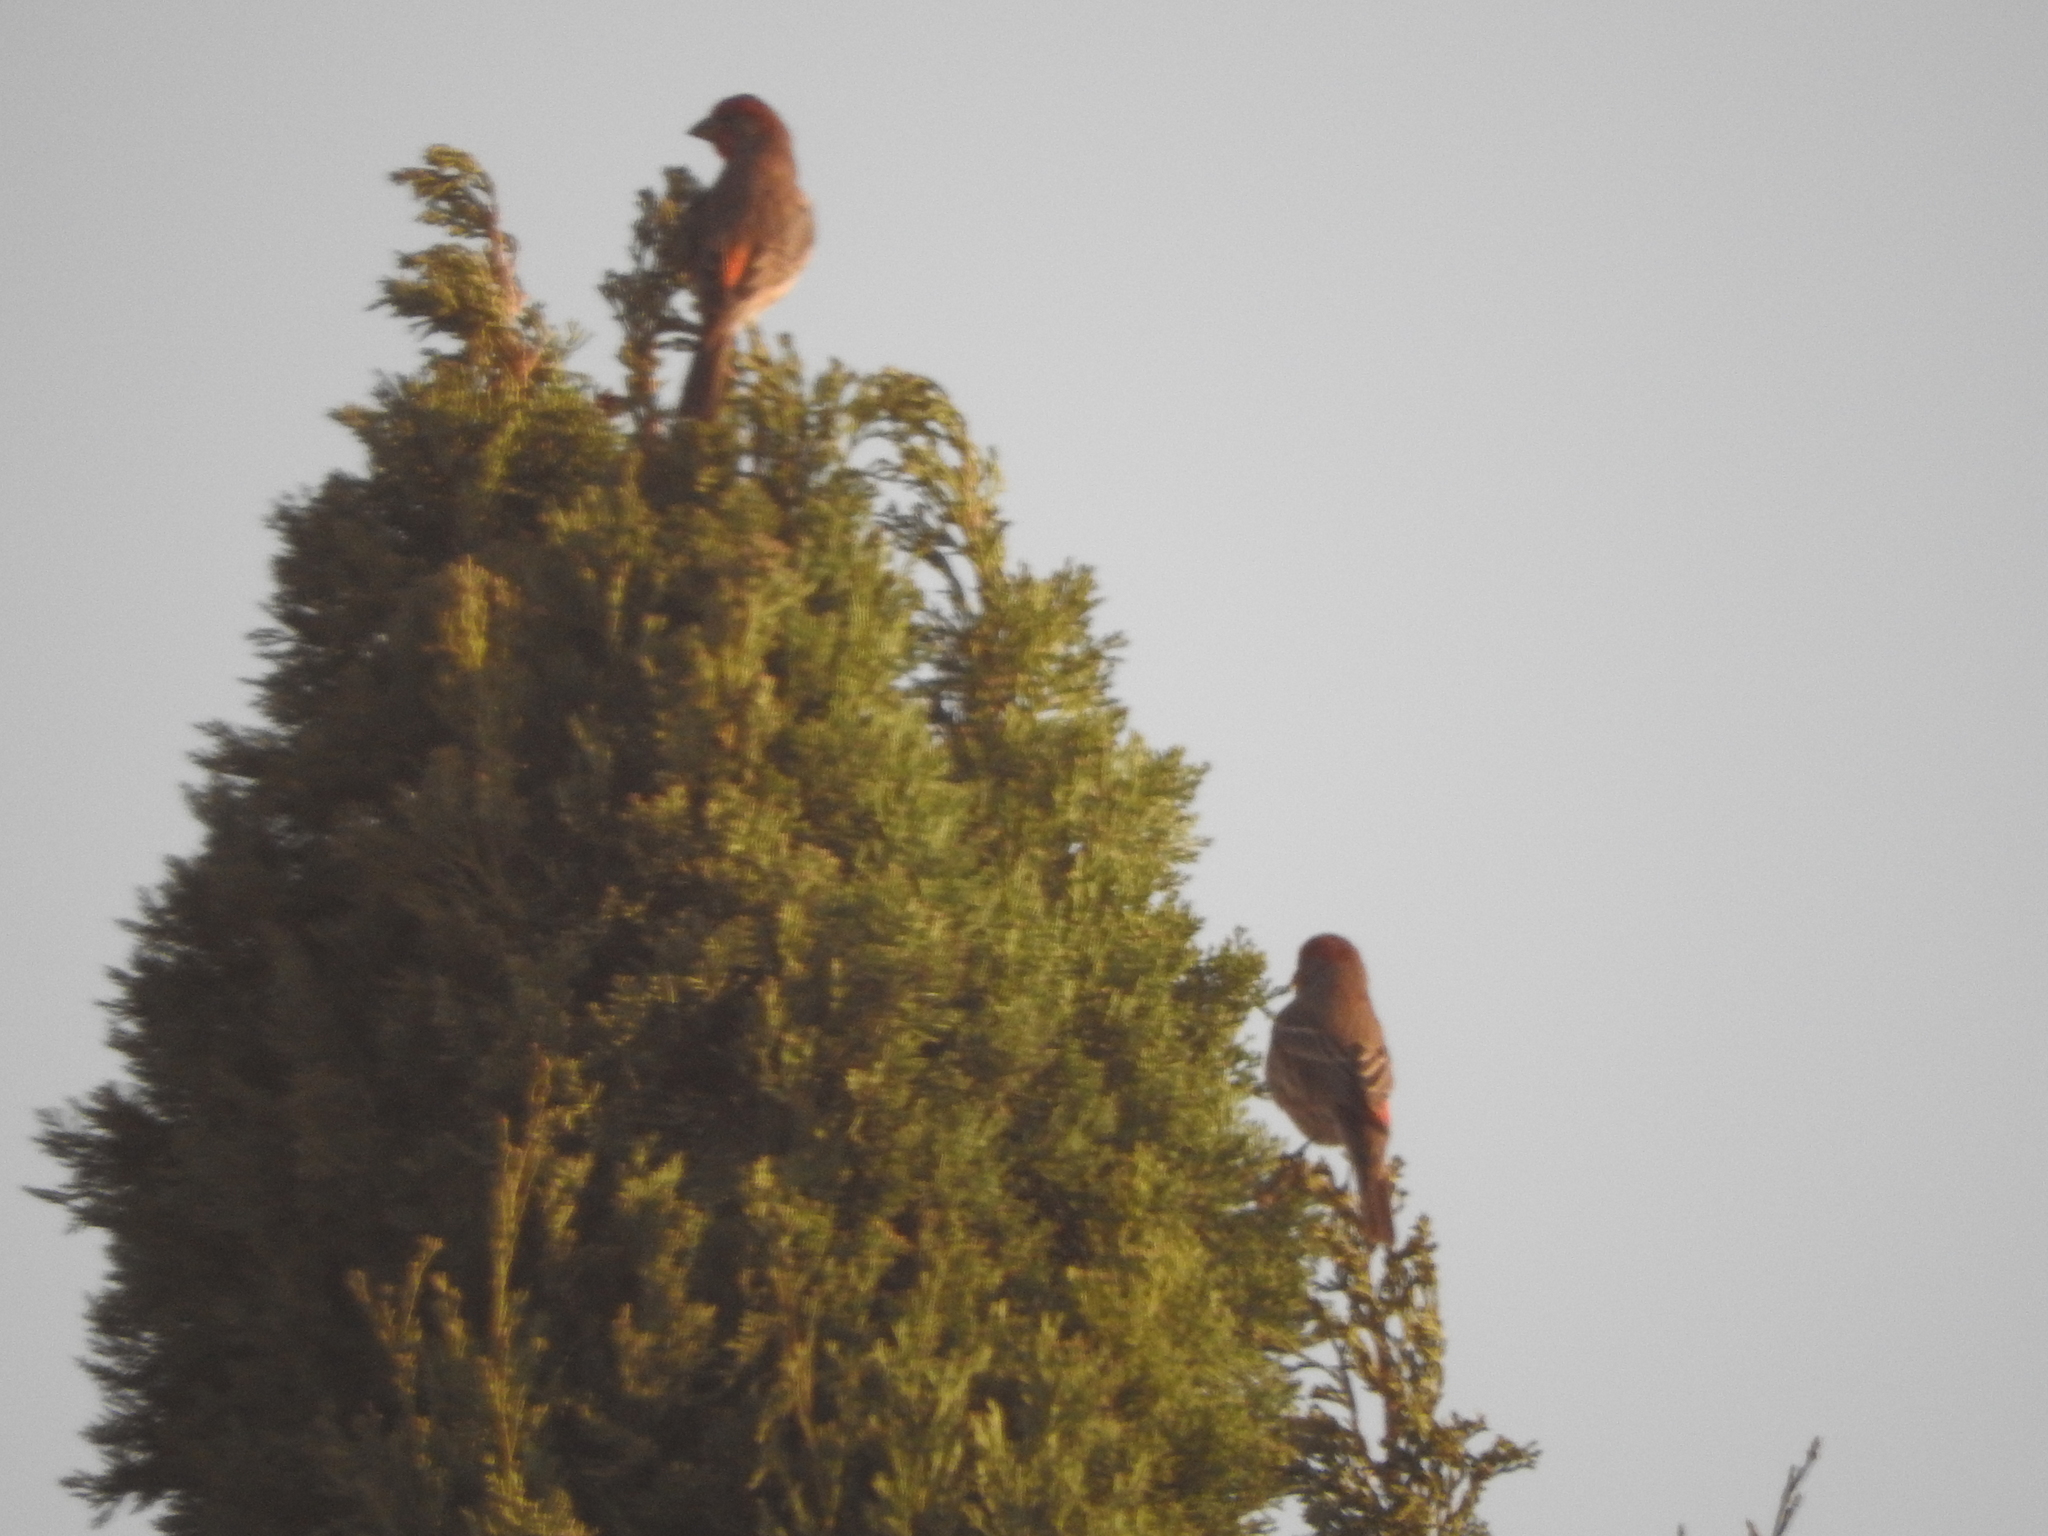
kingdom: Animalia
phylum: Chordata
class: Aves
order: Passeriformes
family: Fringillidae
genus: Haemorhous
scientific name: Haemorhous mexicanus
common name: House finch
